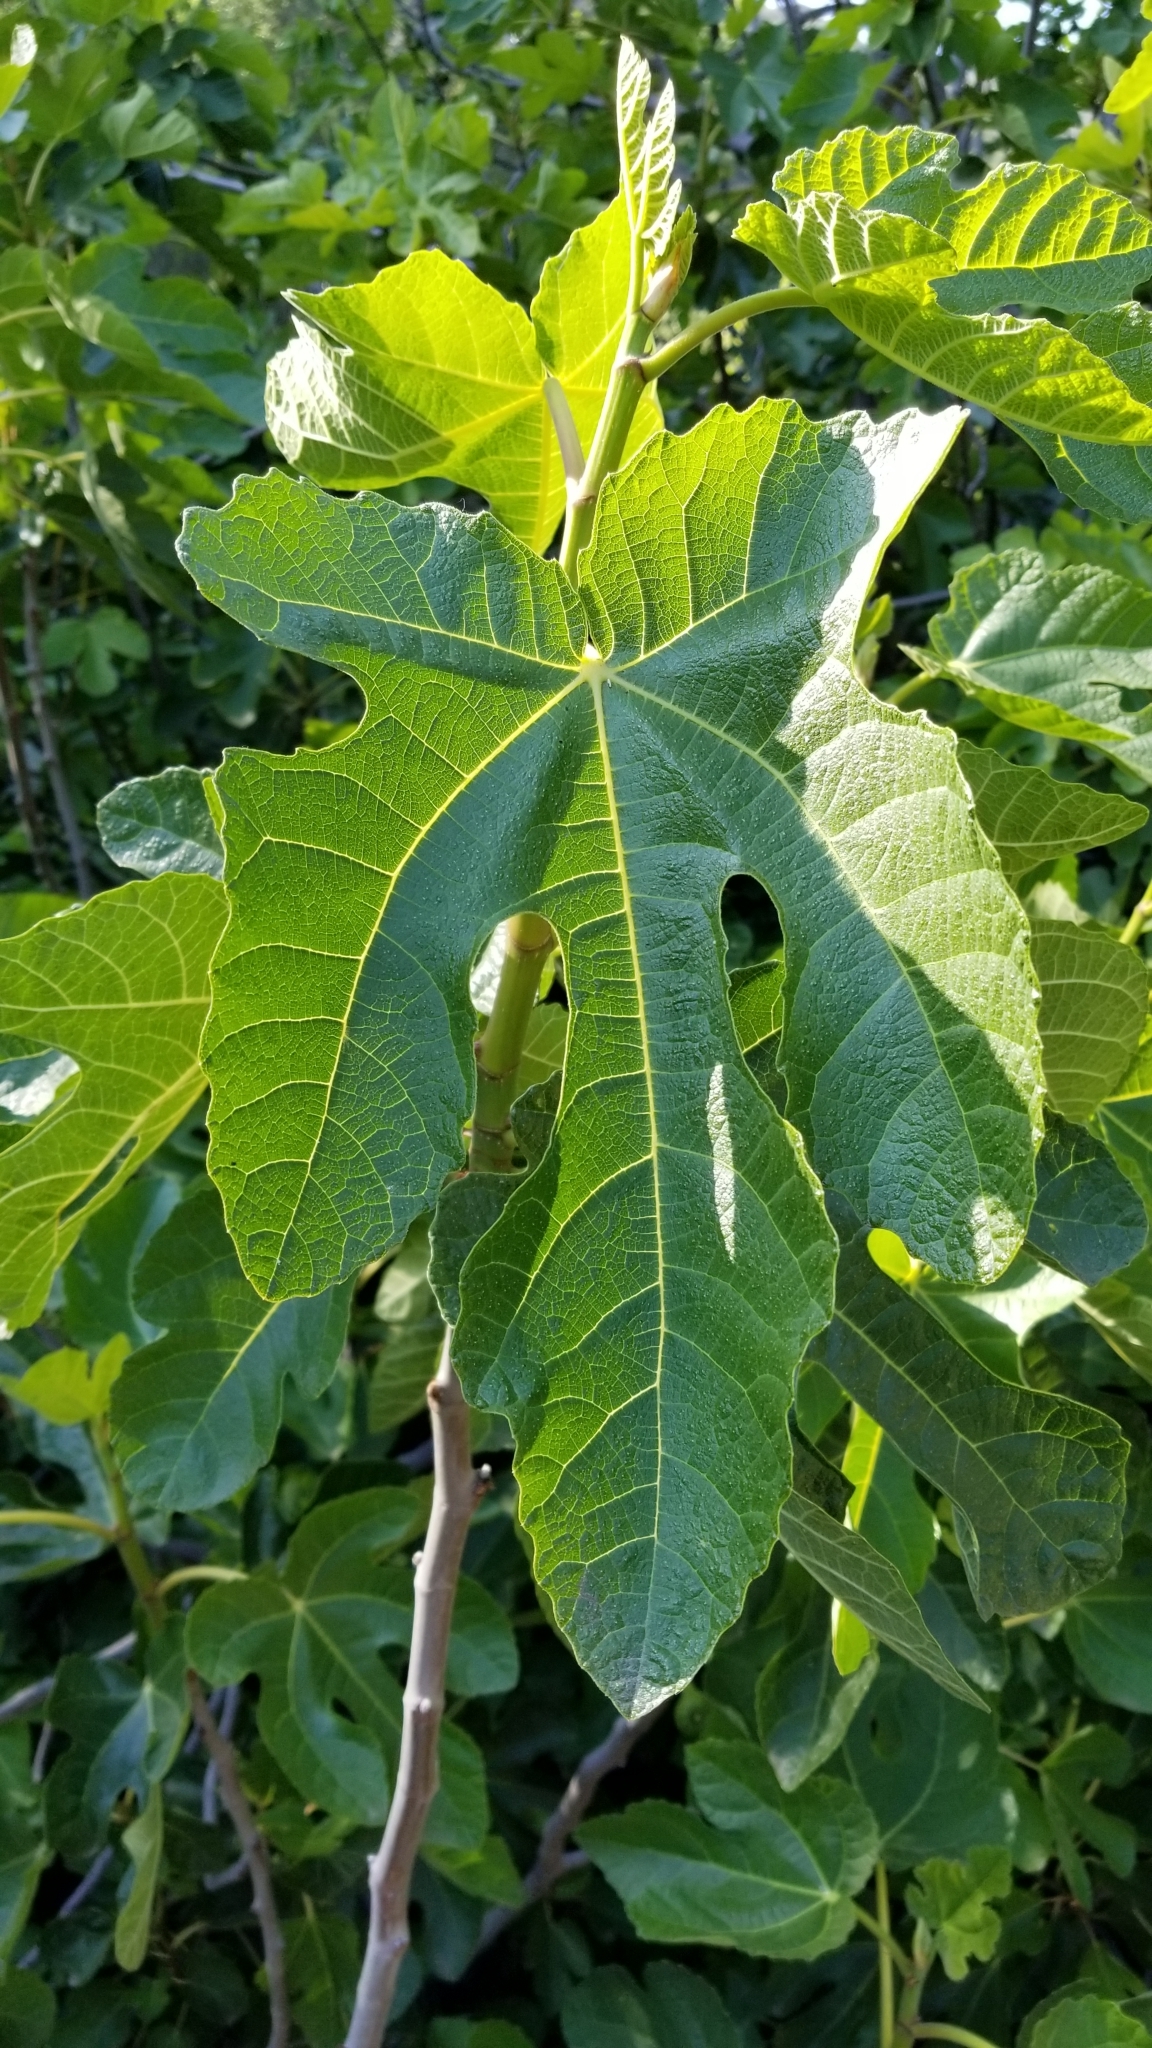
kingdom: Plantae
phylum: Tracheophyta
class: Magnoliopsida
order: Rosales
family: Moraceae
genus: Ficus
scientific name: Ficus carica
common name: Fig
